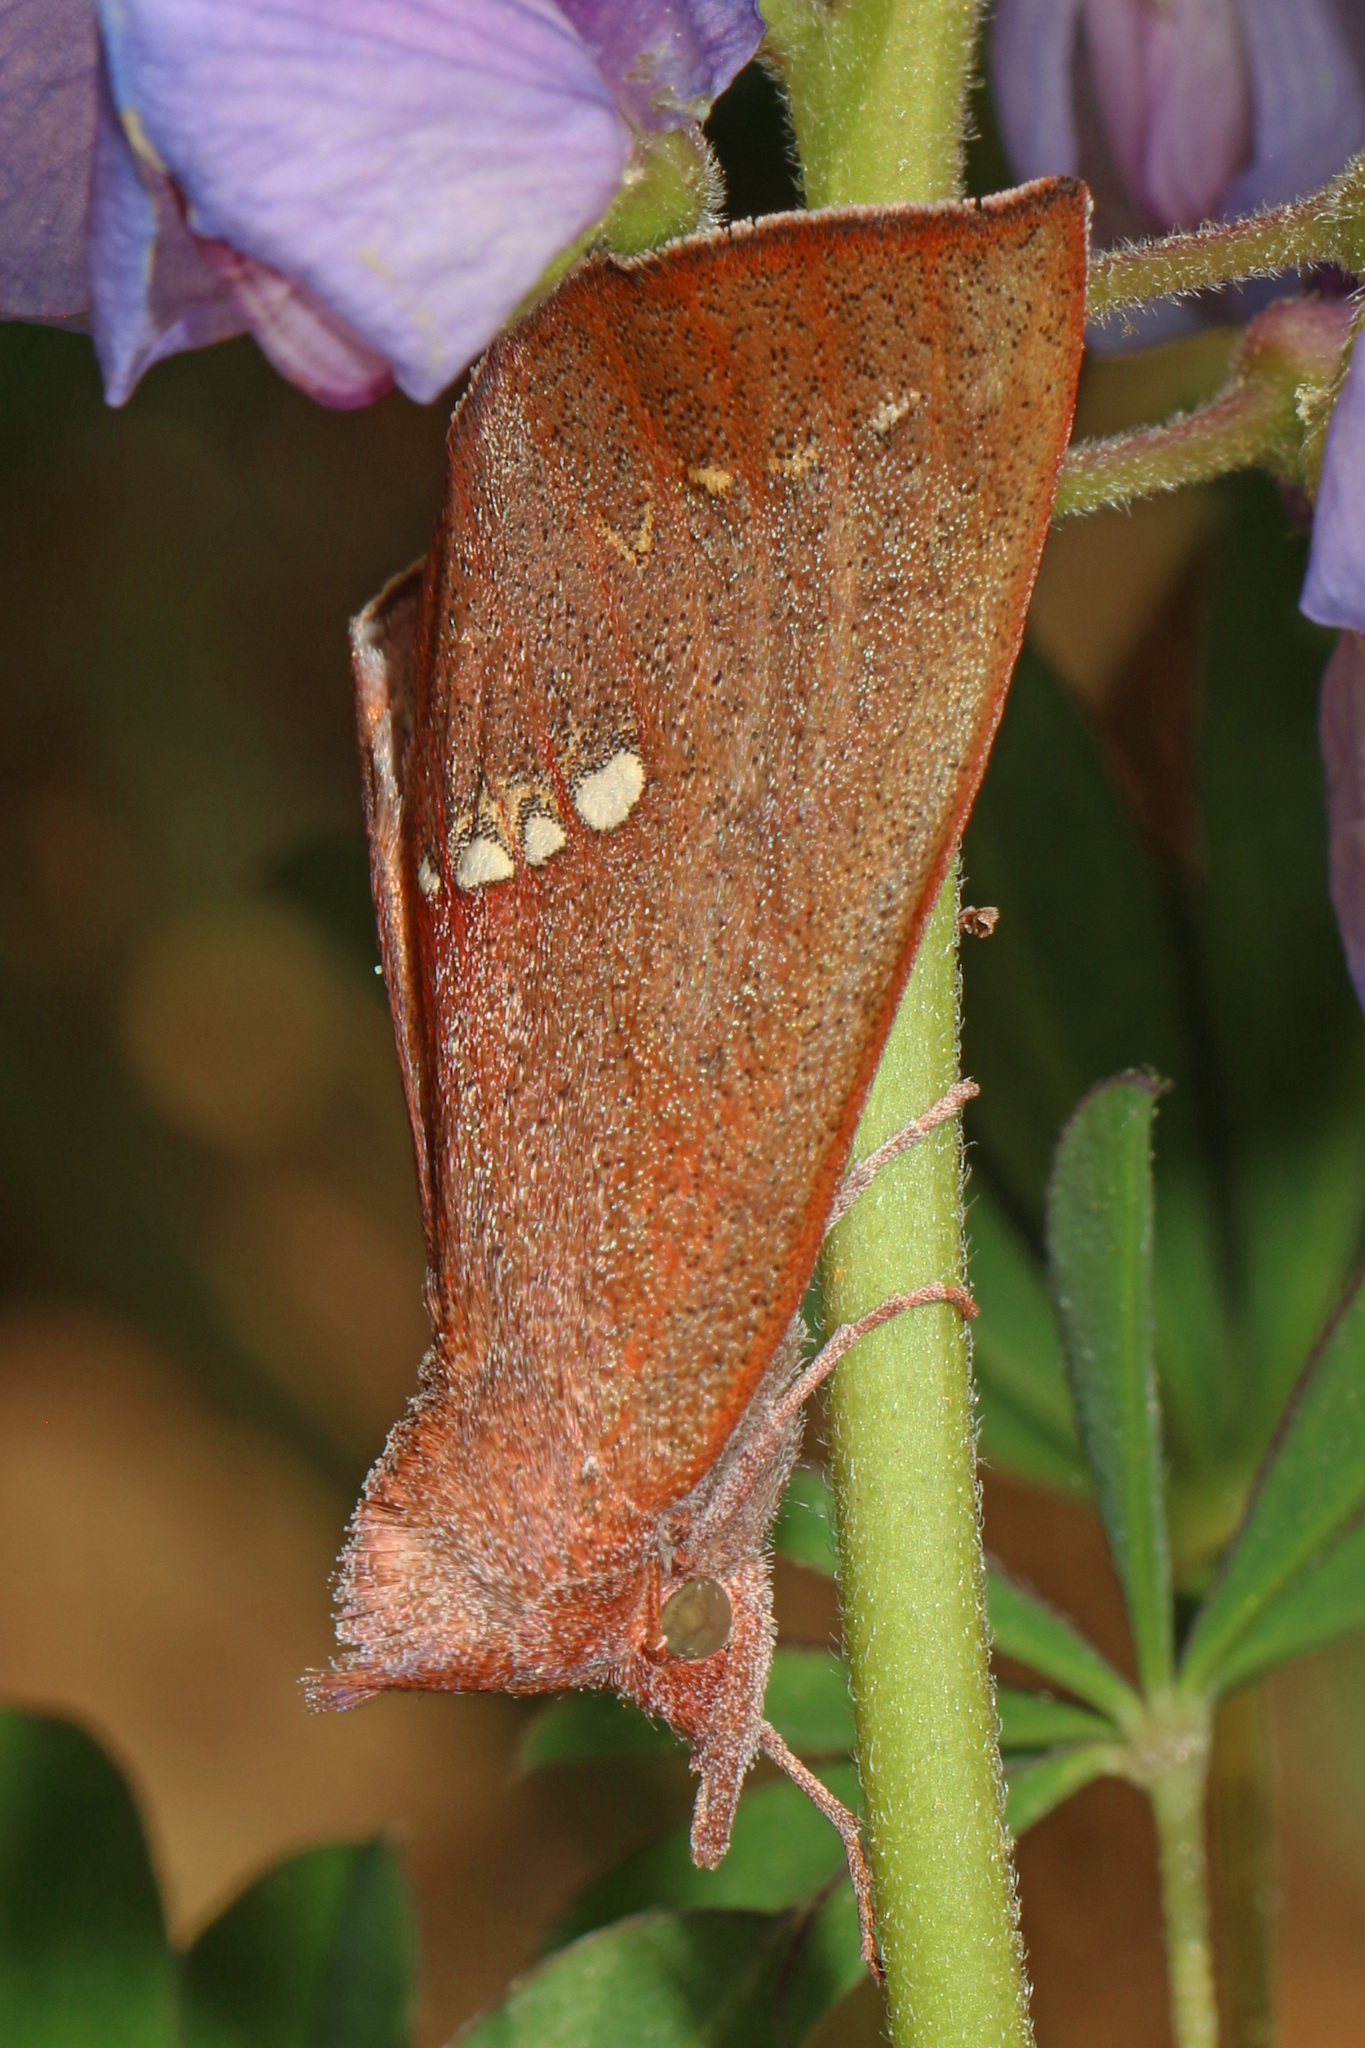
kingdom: Animalia
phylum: Arthropoda
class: Insecta
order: Lepidoptera
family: Erebidae
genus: Hypsoropha
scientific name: Hypsoropha monilis
